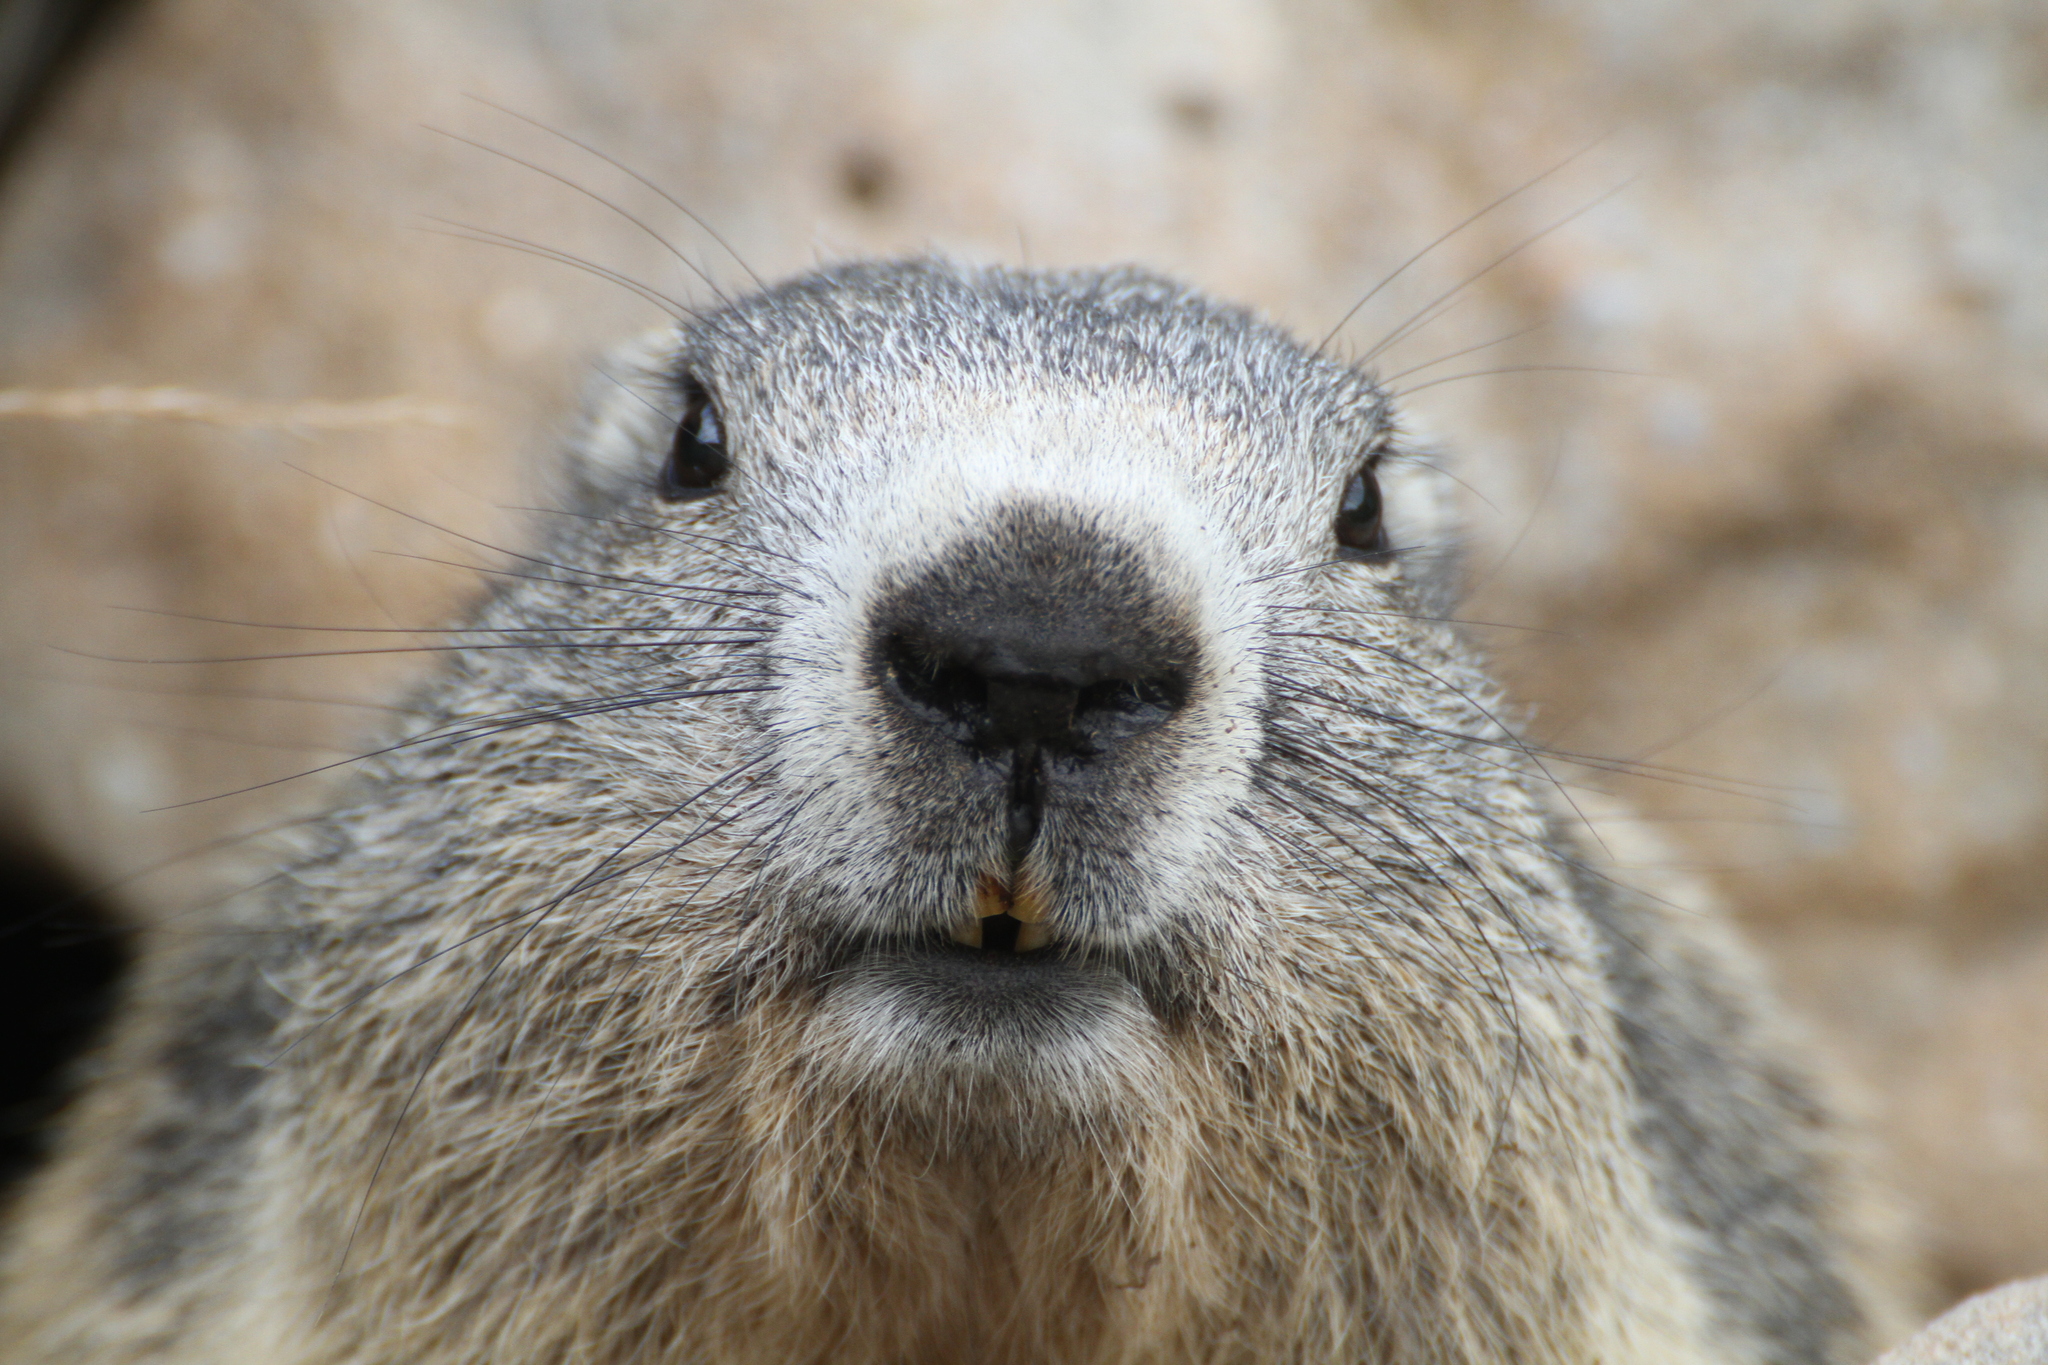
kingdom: Animalia
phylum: Chordata
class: Mammalia
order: Rodentia
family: Sciuridae
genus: Marmota
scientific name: Marmota marmota
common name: Alpine marmot
